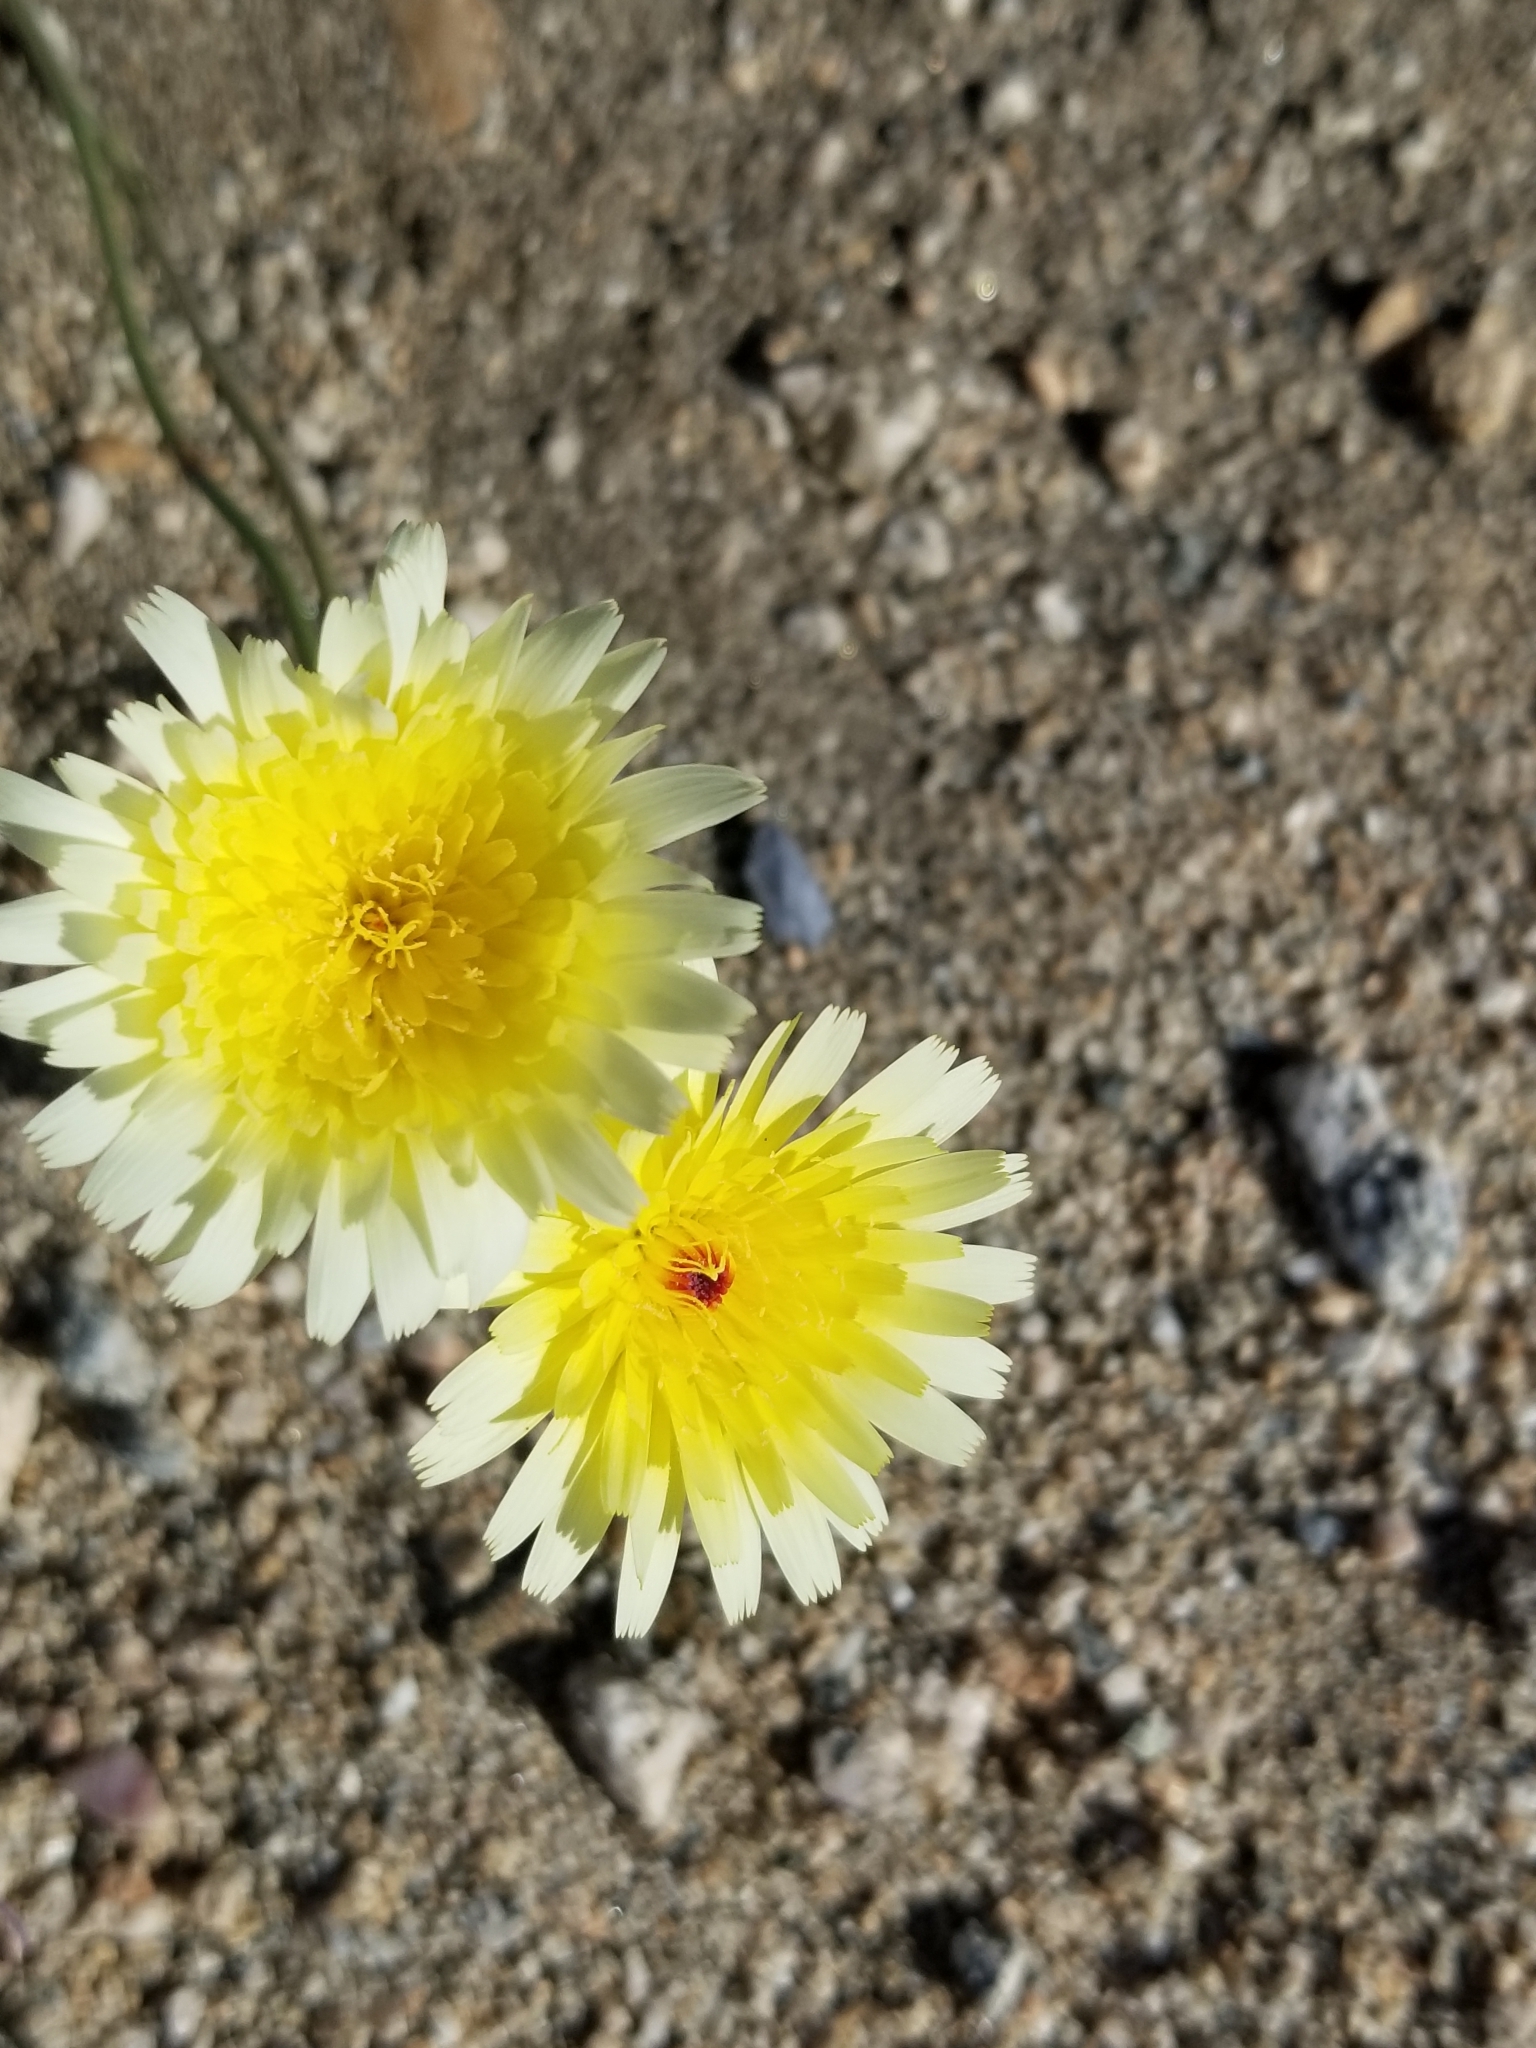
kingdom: Plantae
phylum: Tracheophyta
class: Magnoliopsida
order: Asterales
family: Asteraceae
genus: Malacothrix
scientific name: Malacothrix glabrata
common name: Smooth desert-dandelion
